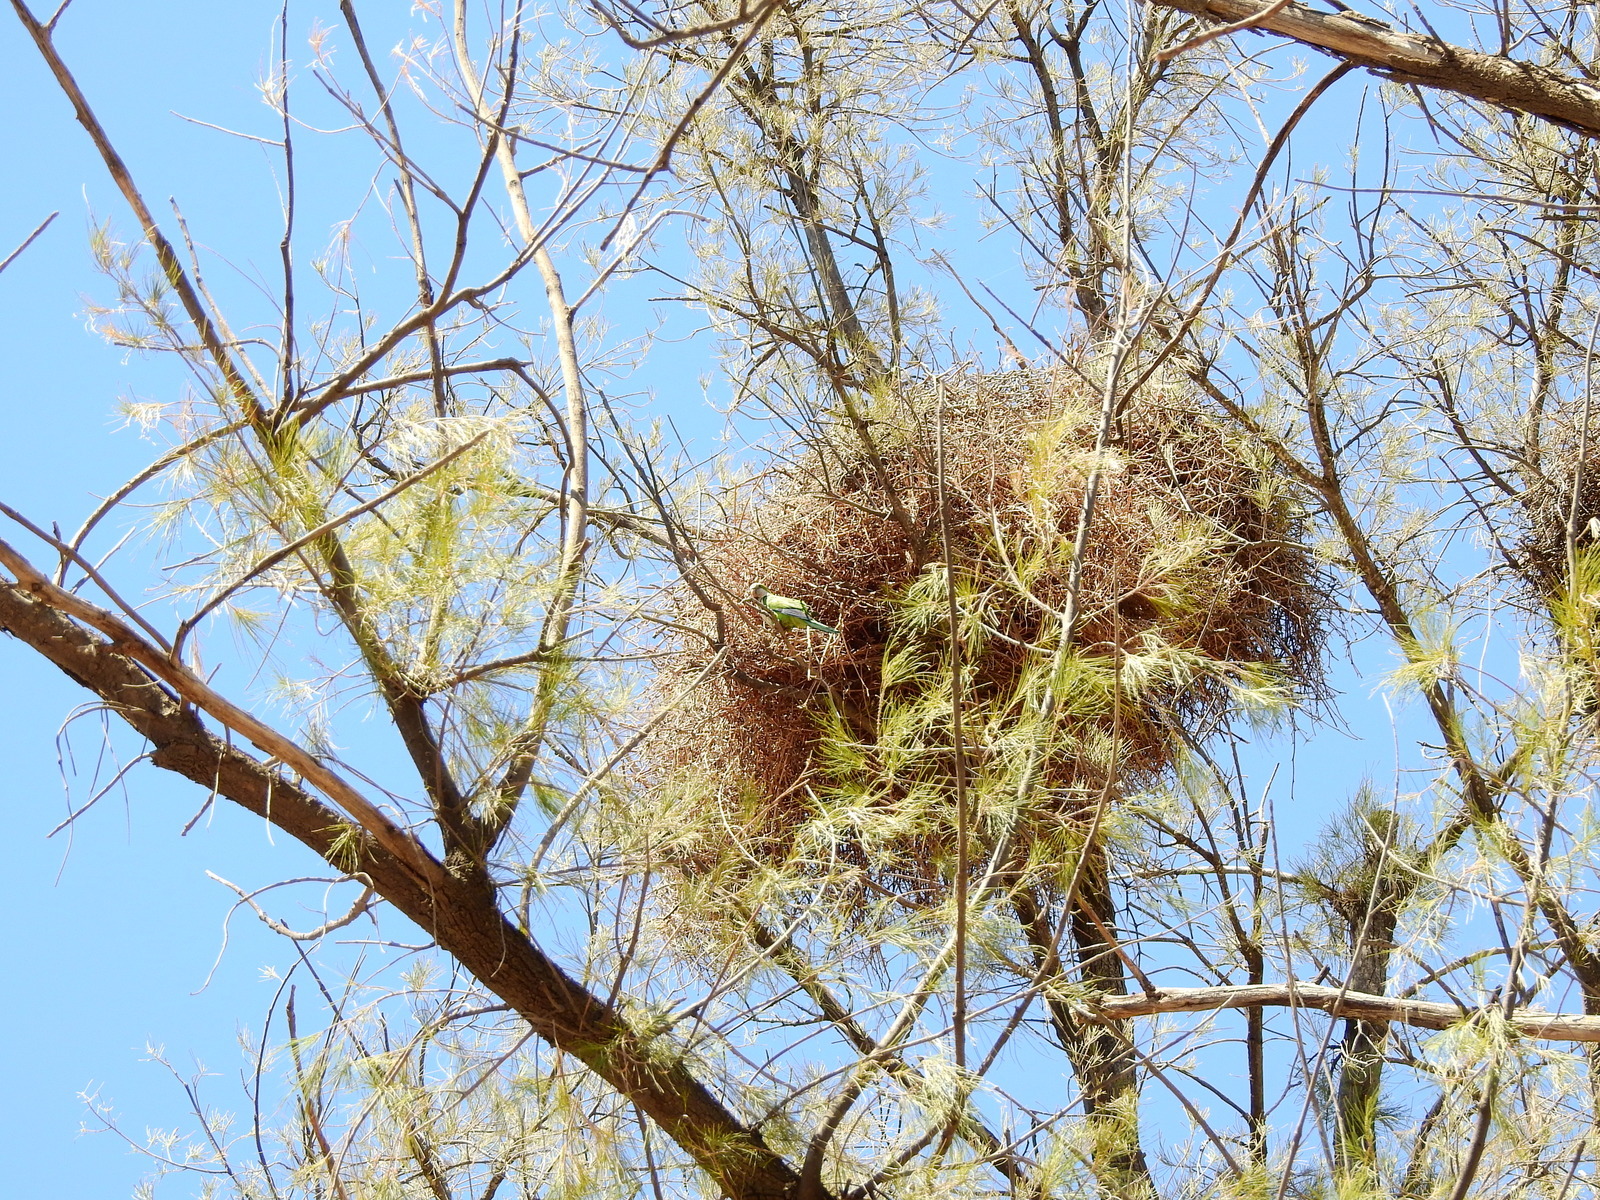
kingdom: Animalia
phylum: Chordata
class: Aves
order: Psittaciformes
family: Psittacidae
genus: Myiopsitta
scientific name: Myiopsitta monachus
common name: Monk parakeet
